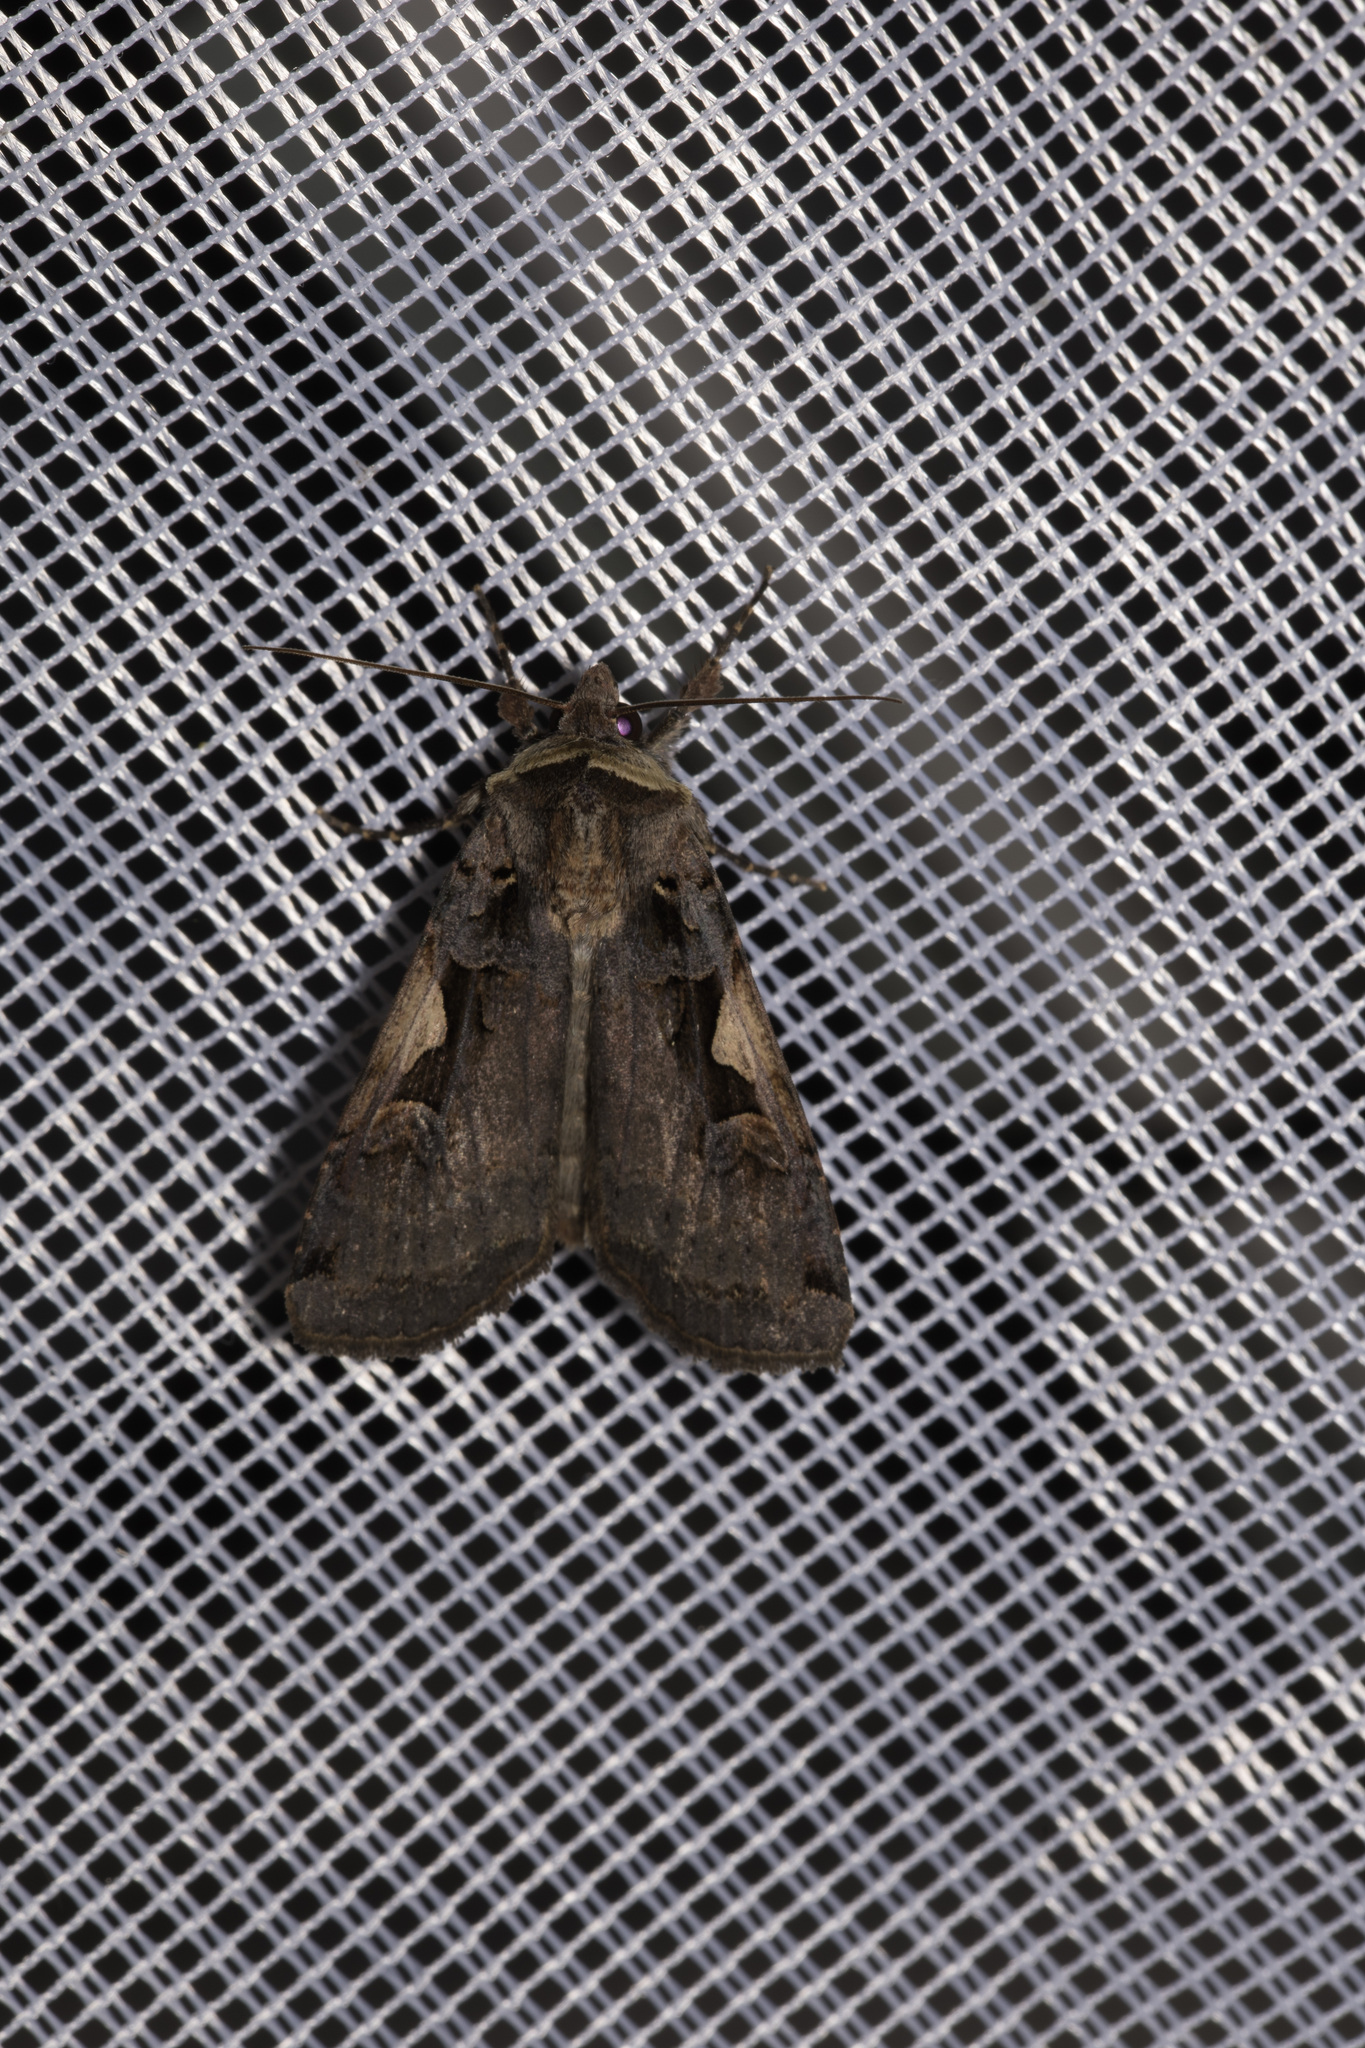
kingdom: Animalia
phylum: Arthropoda
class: Insecta
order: Lepidoptera
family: Noctuidae
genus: Xestia
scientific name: Xestia c-nigrum
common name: Setaceous hebrew character
